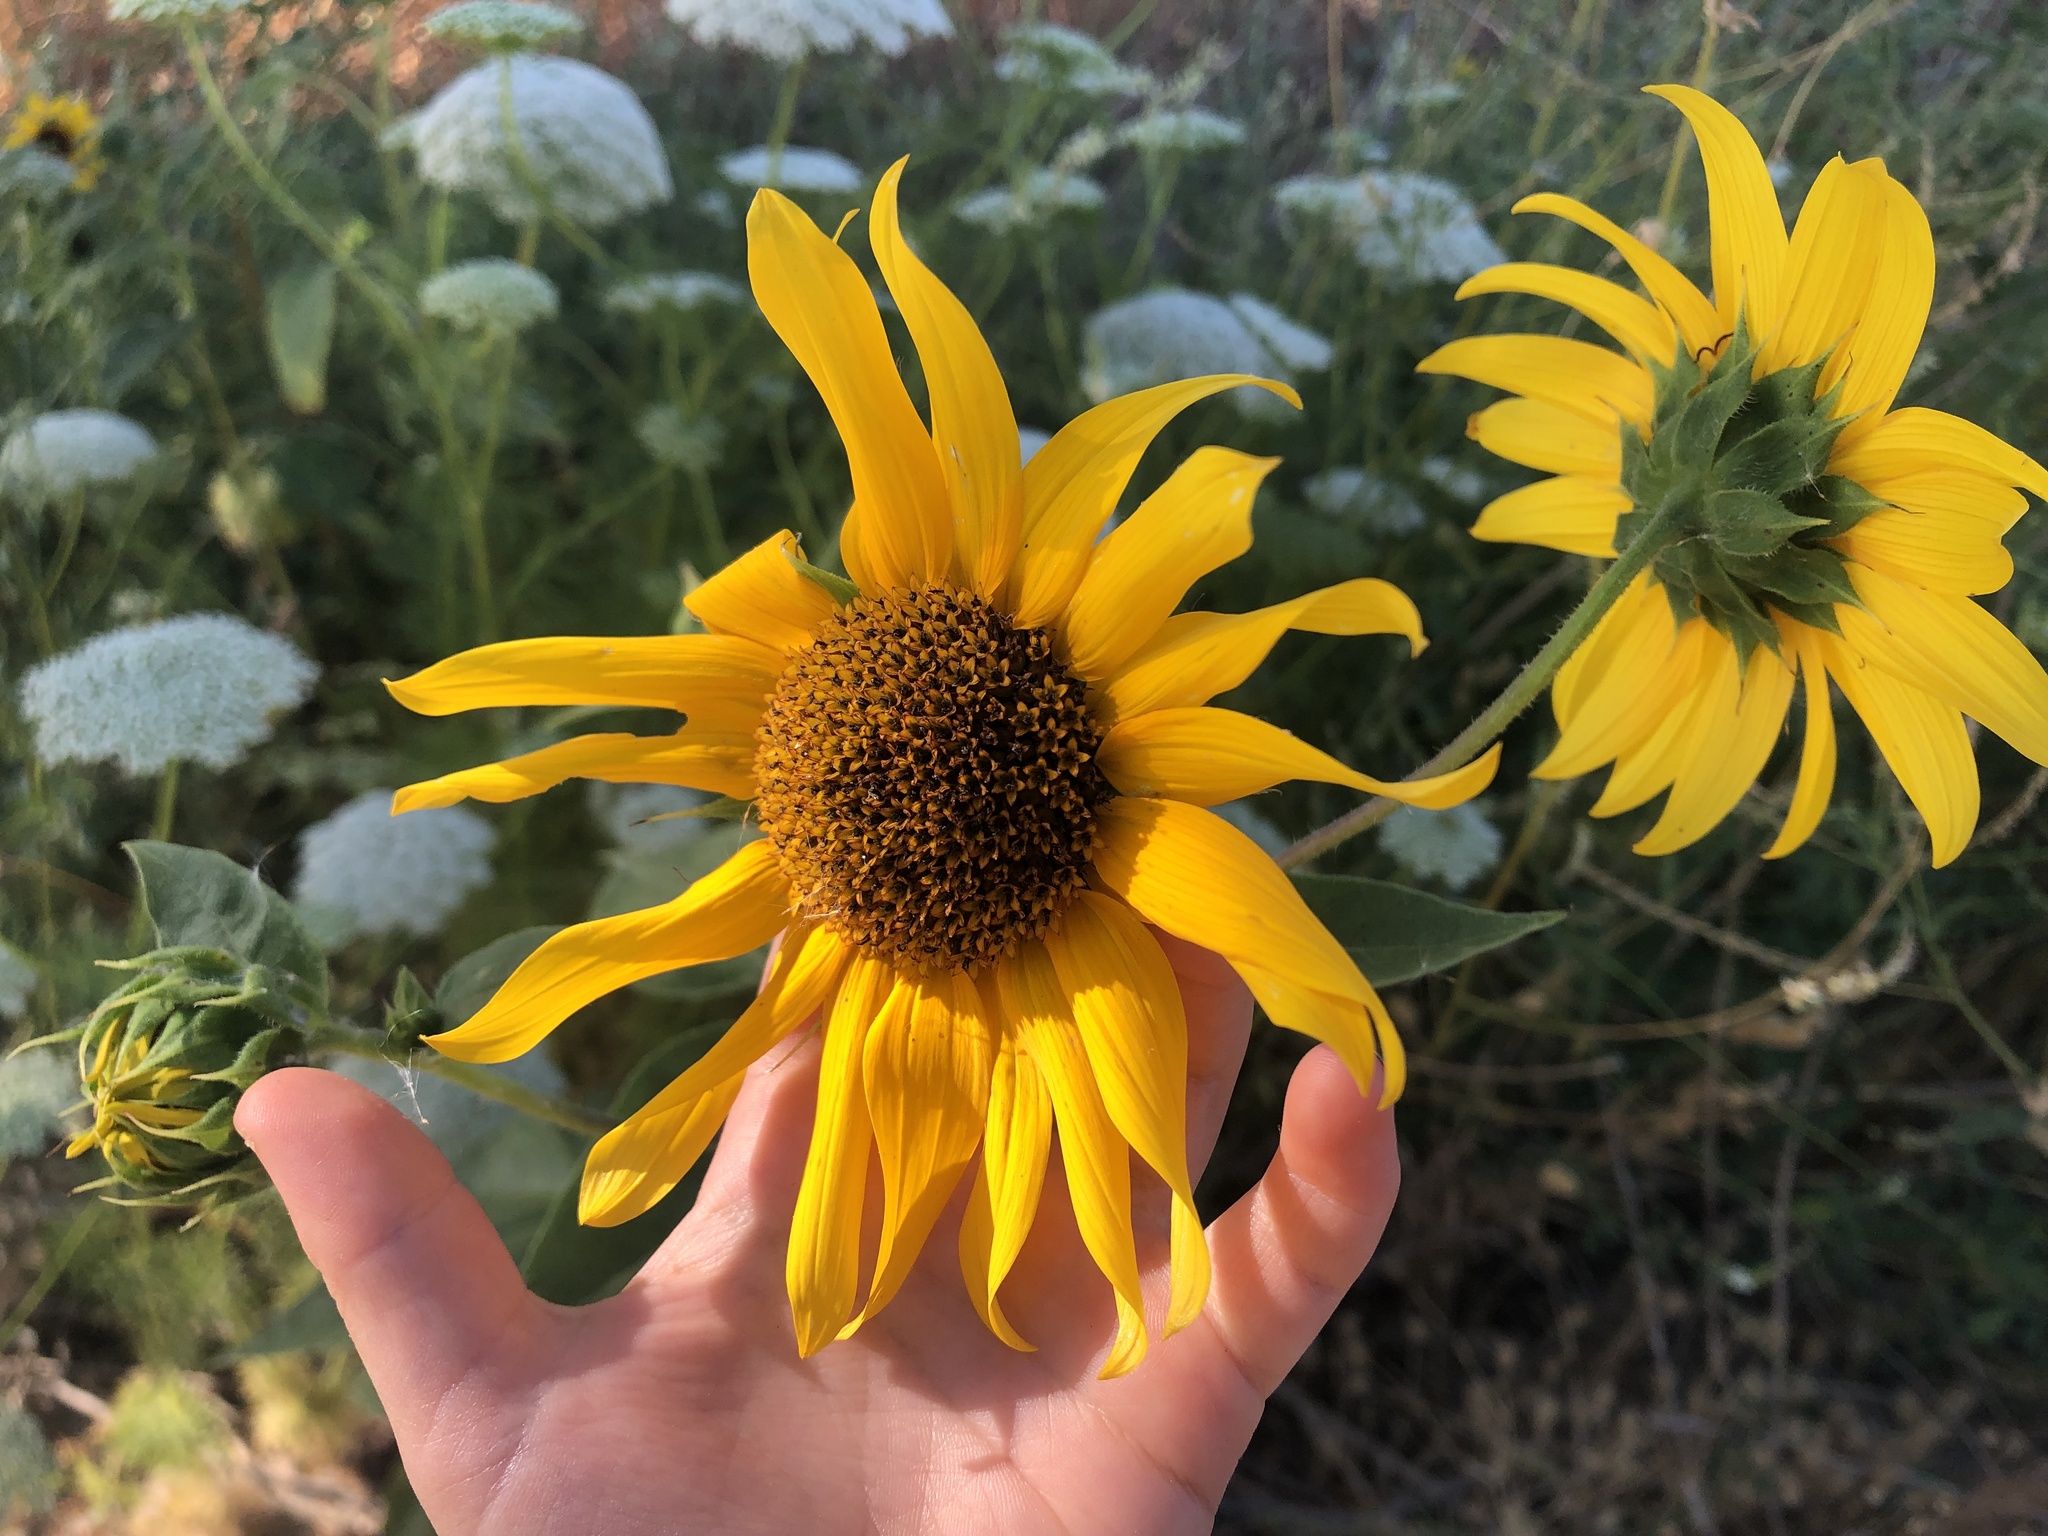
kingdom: Plantae
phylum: Tracheophyta
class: Magnoliopsida
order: Asterales
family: Asteraceae
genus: Helianthus
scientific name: Helianthus annuus
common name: Sunflower
